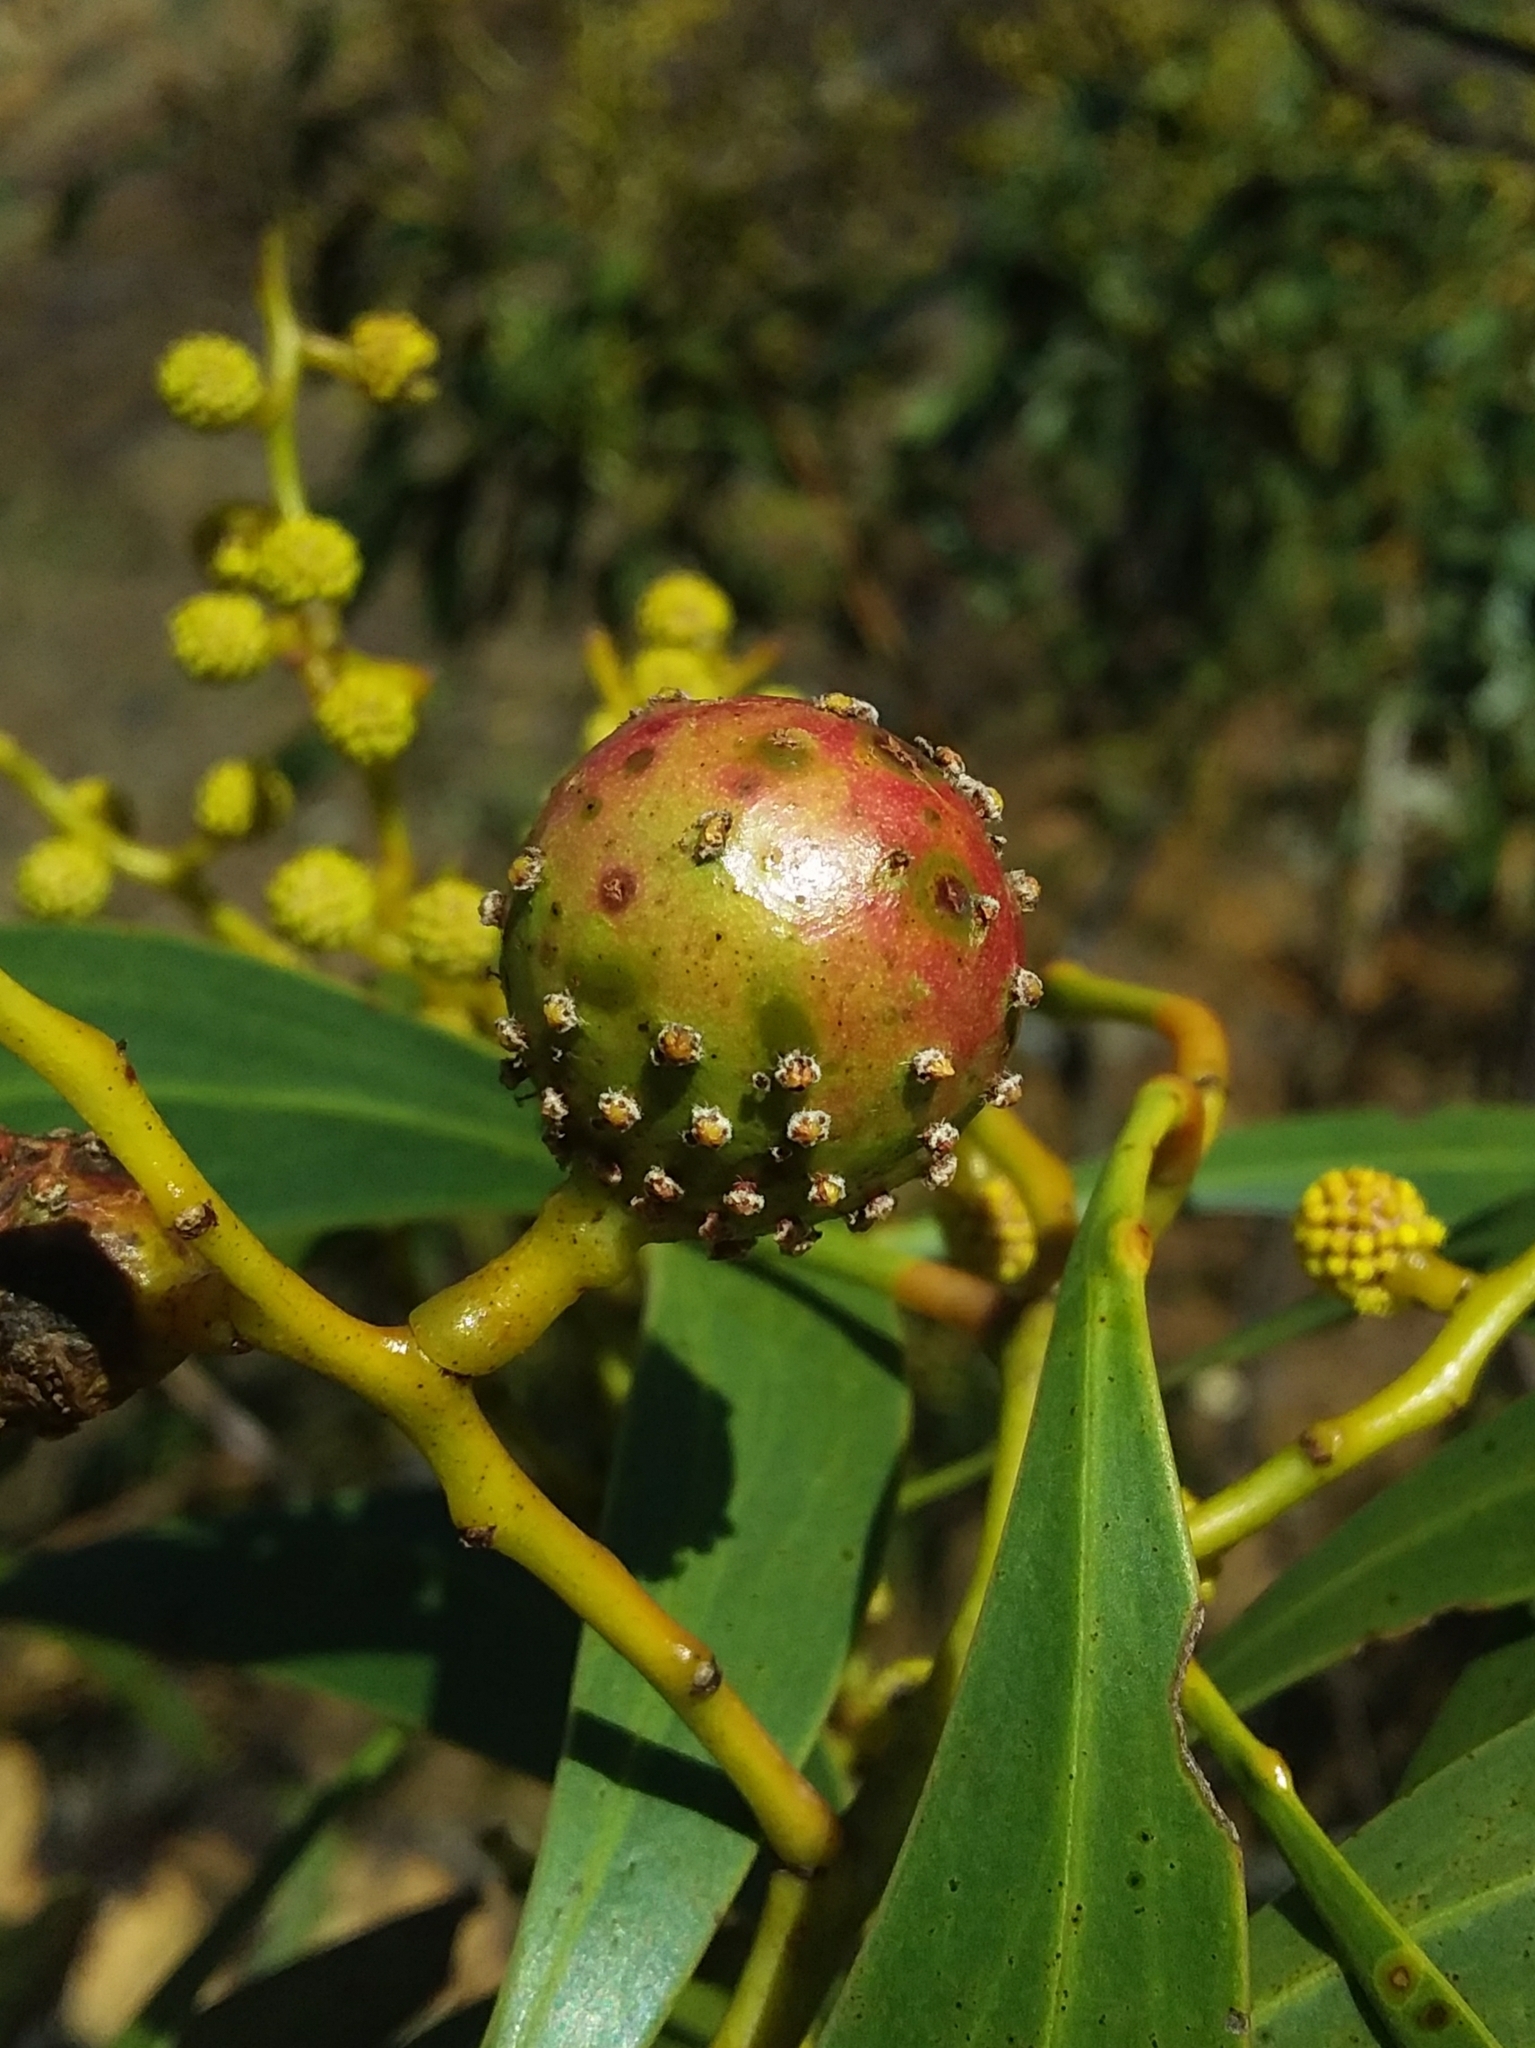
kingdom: Animalia
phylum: Arthropoda
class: Insecta
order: Hymenoptera
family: Pteromalidae
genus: Trichilogaster
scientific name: Trichilogaster signiventris
